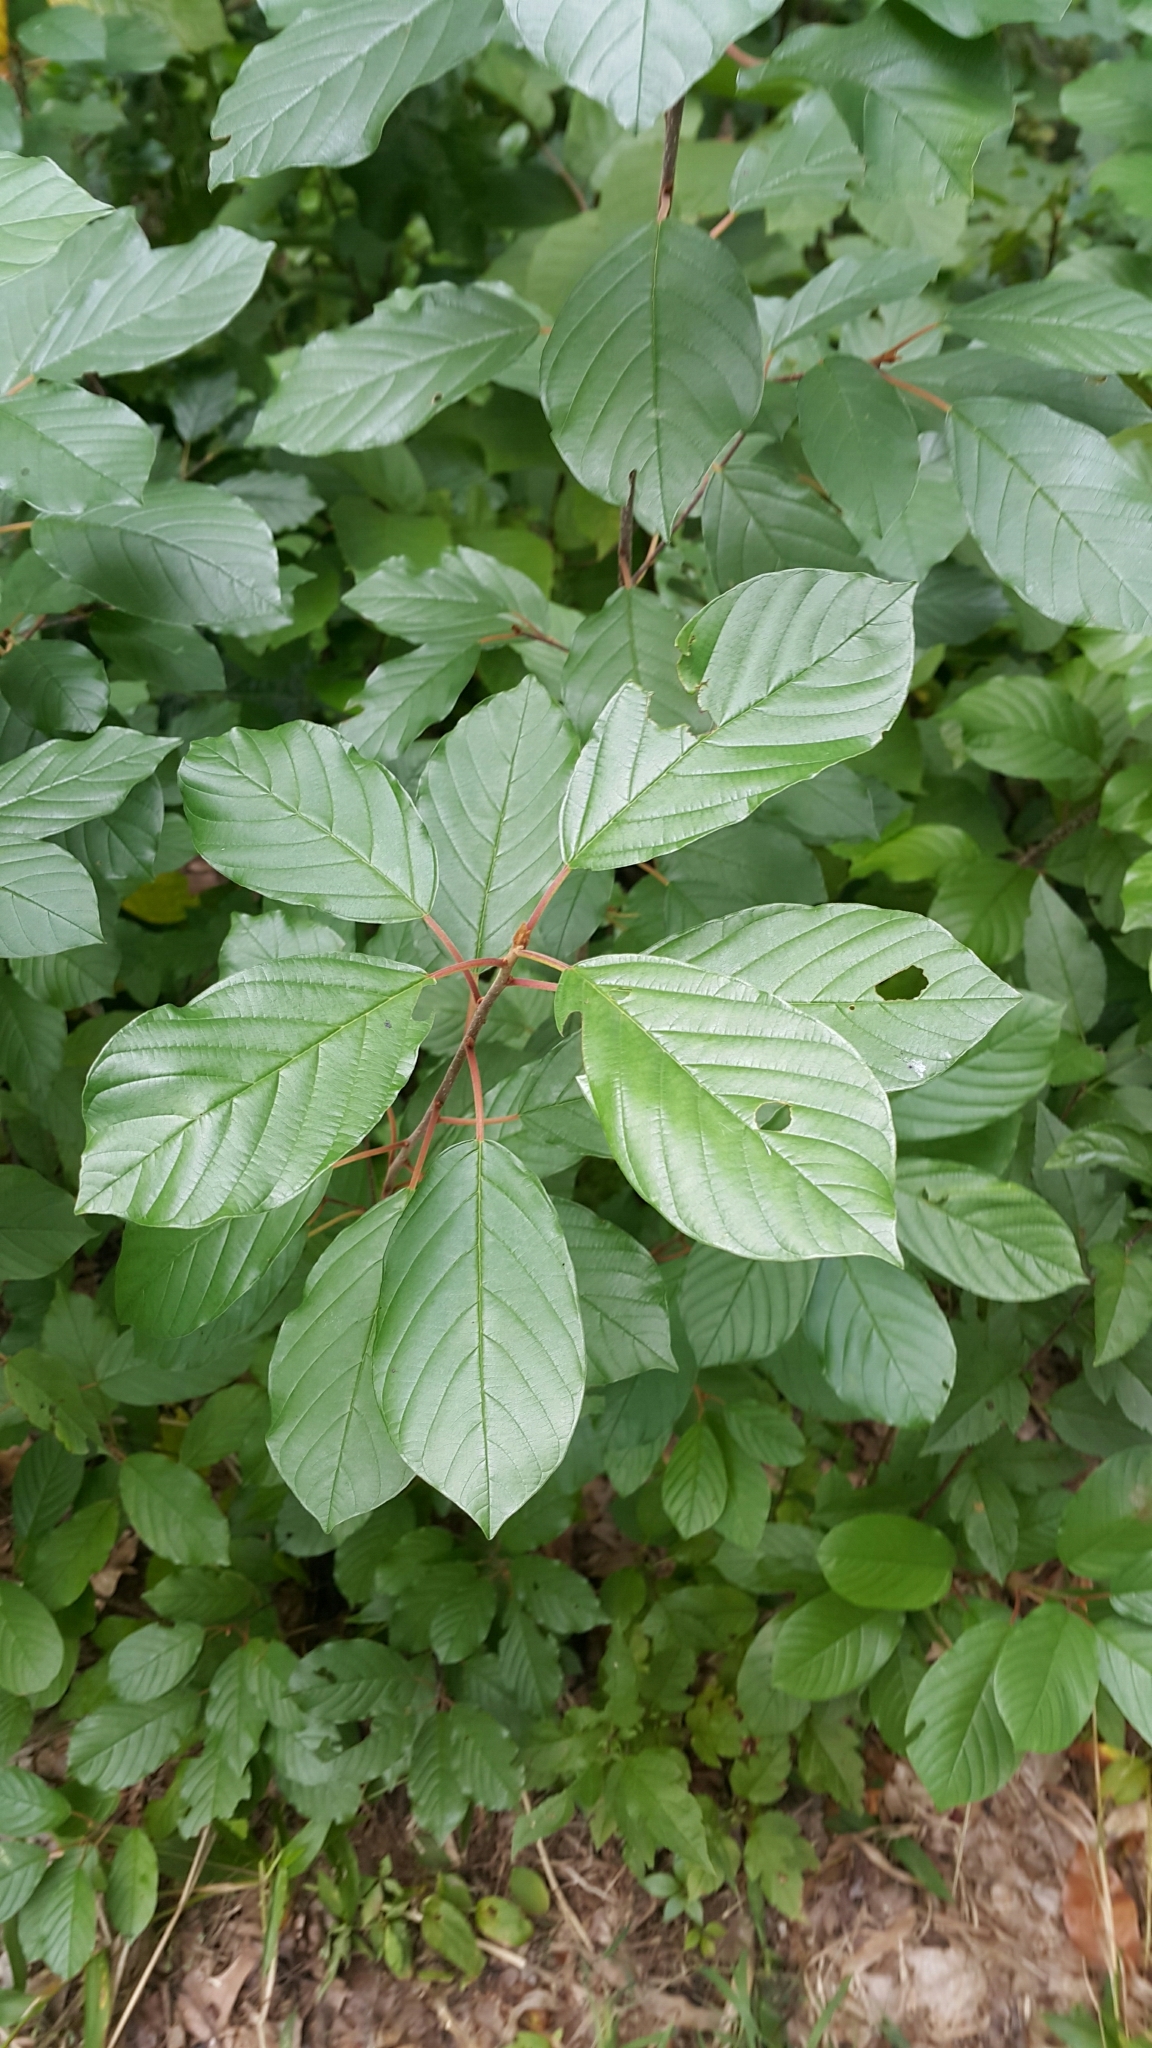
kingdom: Plantae
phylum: Tracheophyta
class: Magnoliopsida
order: Rosales
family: Rhamnaceae
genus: Frangula
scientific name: Frangula alnus
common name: Alder buckthorn
